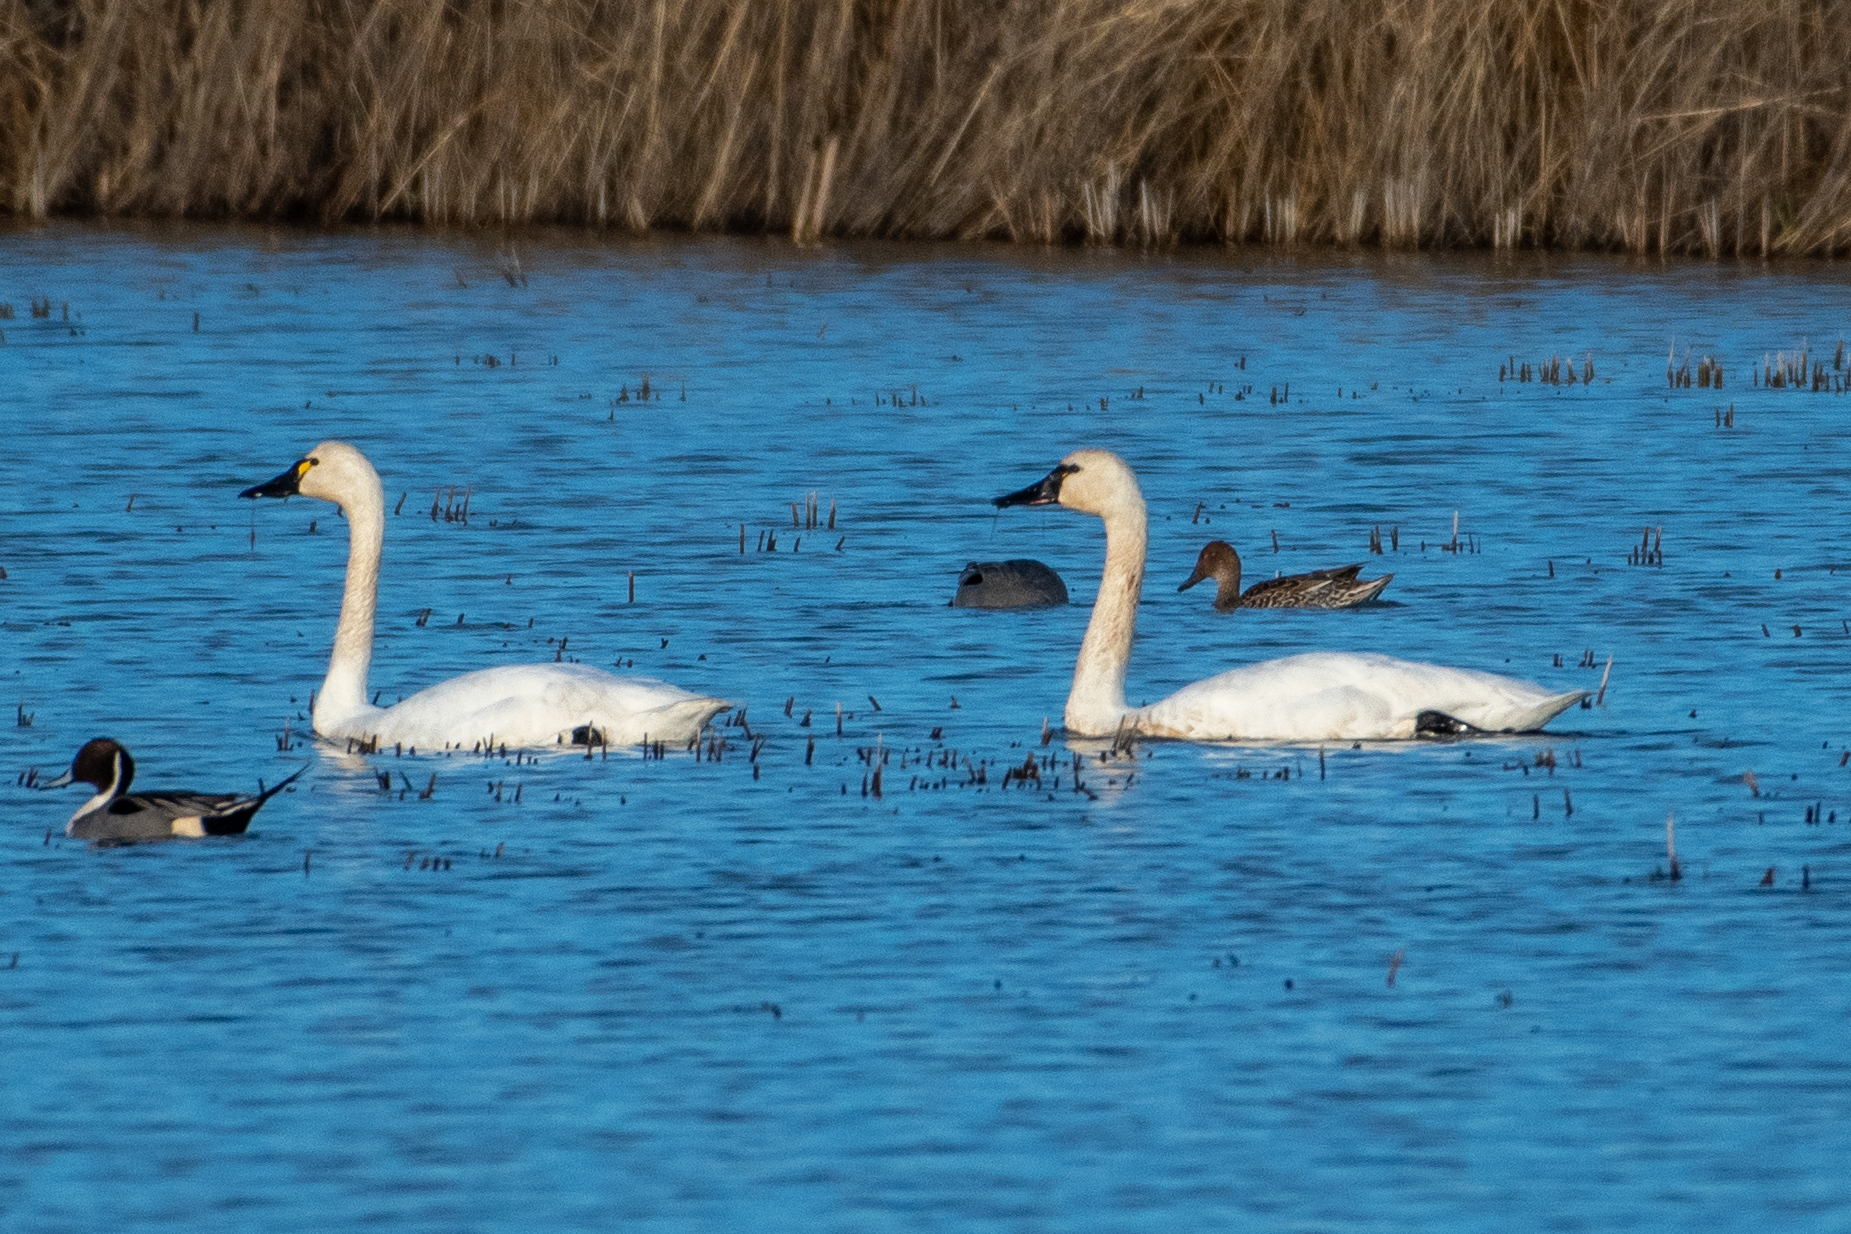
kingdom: Animalia
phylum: Chordata
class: Aves
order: Anseriformes
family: Anatidae
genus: Cygnus
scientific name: Cygnus columbianus
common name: Tundra swan
